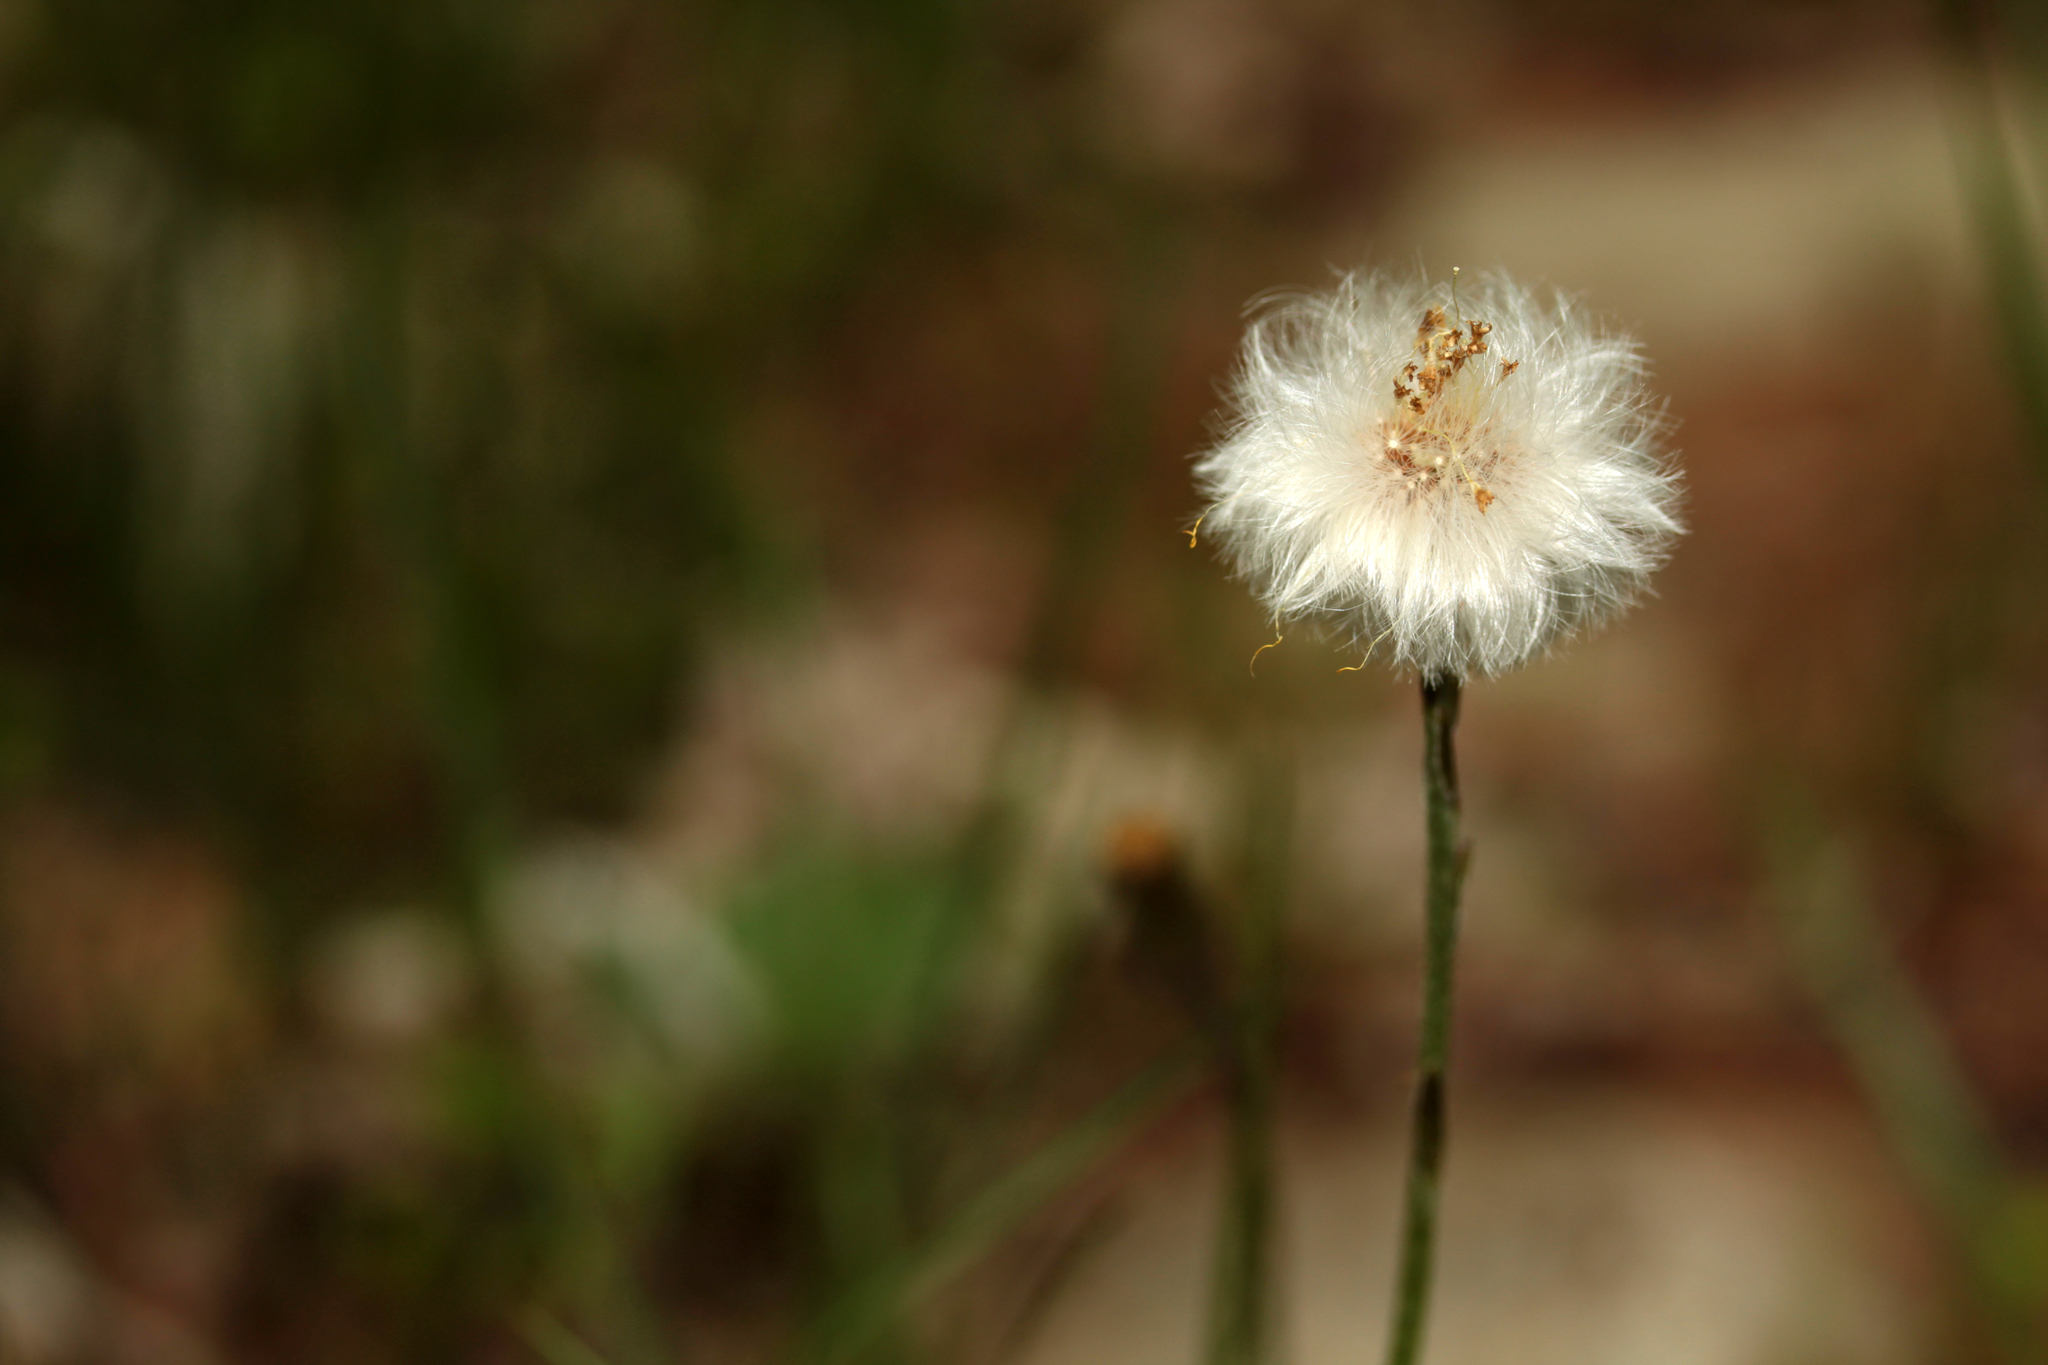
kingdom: Plantae
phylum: Tracheophyta
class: Magnoliopsida
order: Asterales
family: Asteraceae
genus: Tussilago
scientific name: Tussilago farfara
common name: Coltsfoot
